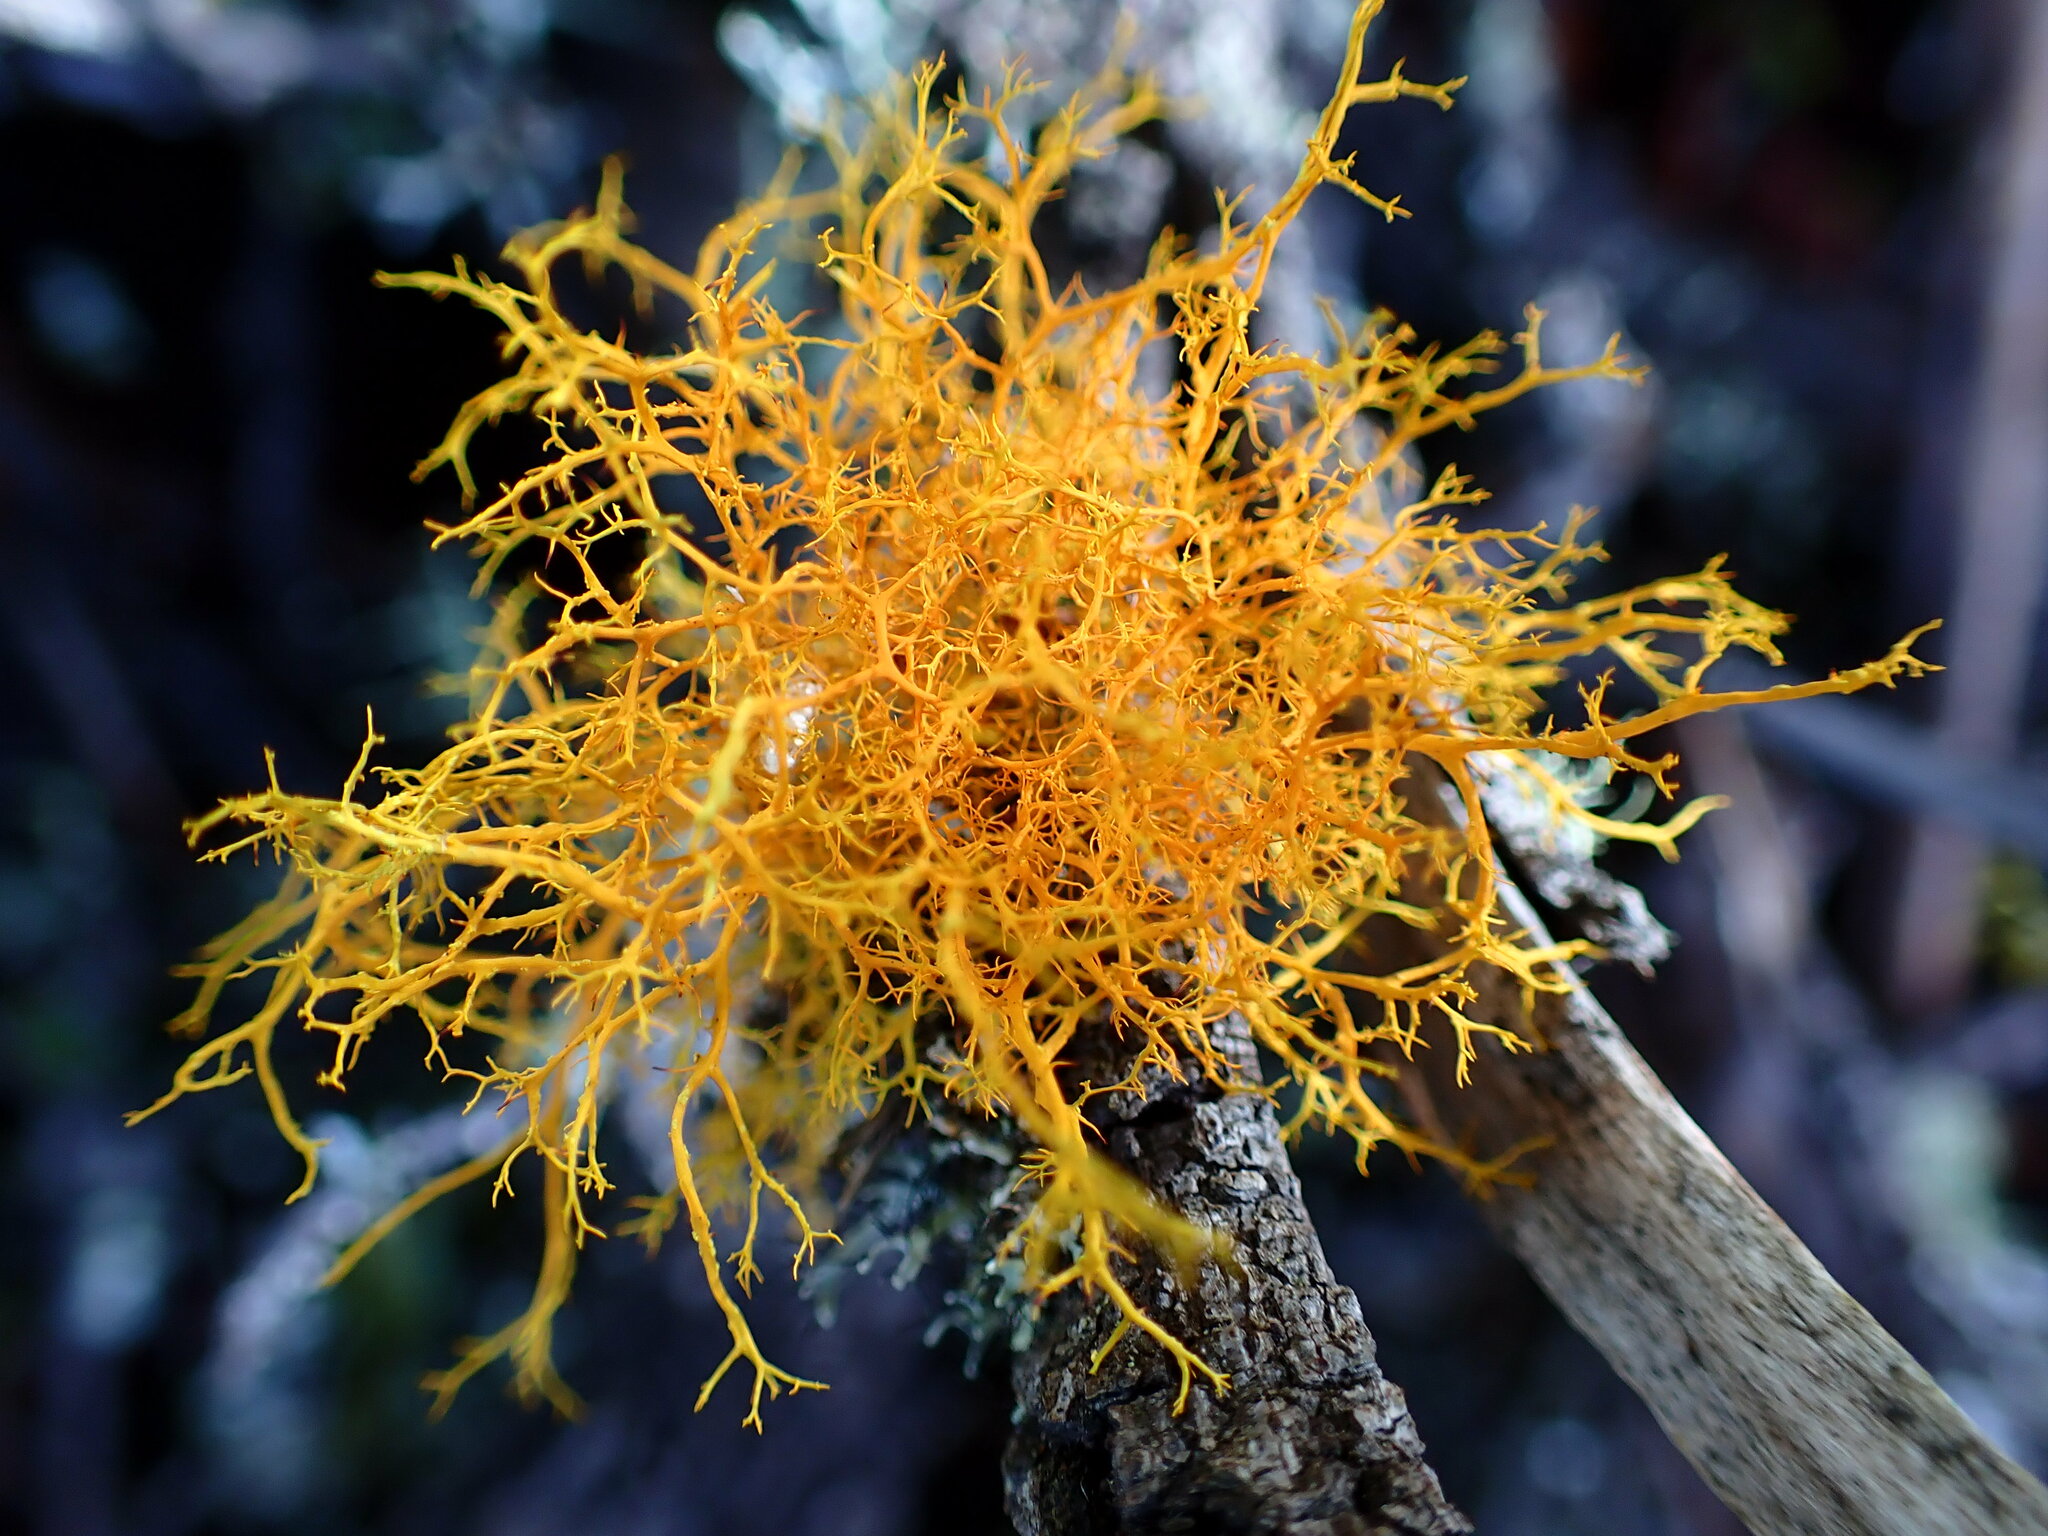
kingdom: Fungi
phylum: Ascomycota
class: Lecanoromycetes
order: Teloschistales
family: Teloschistaceae
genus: Teloschistes
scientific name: Teloschistes flavicans
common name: Golden hair-lichen
